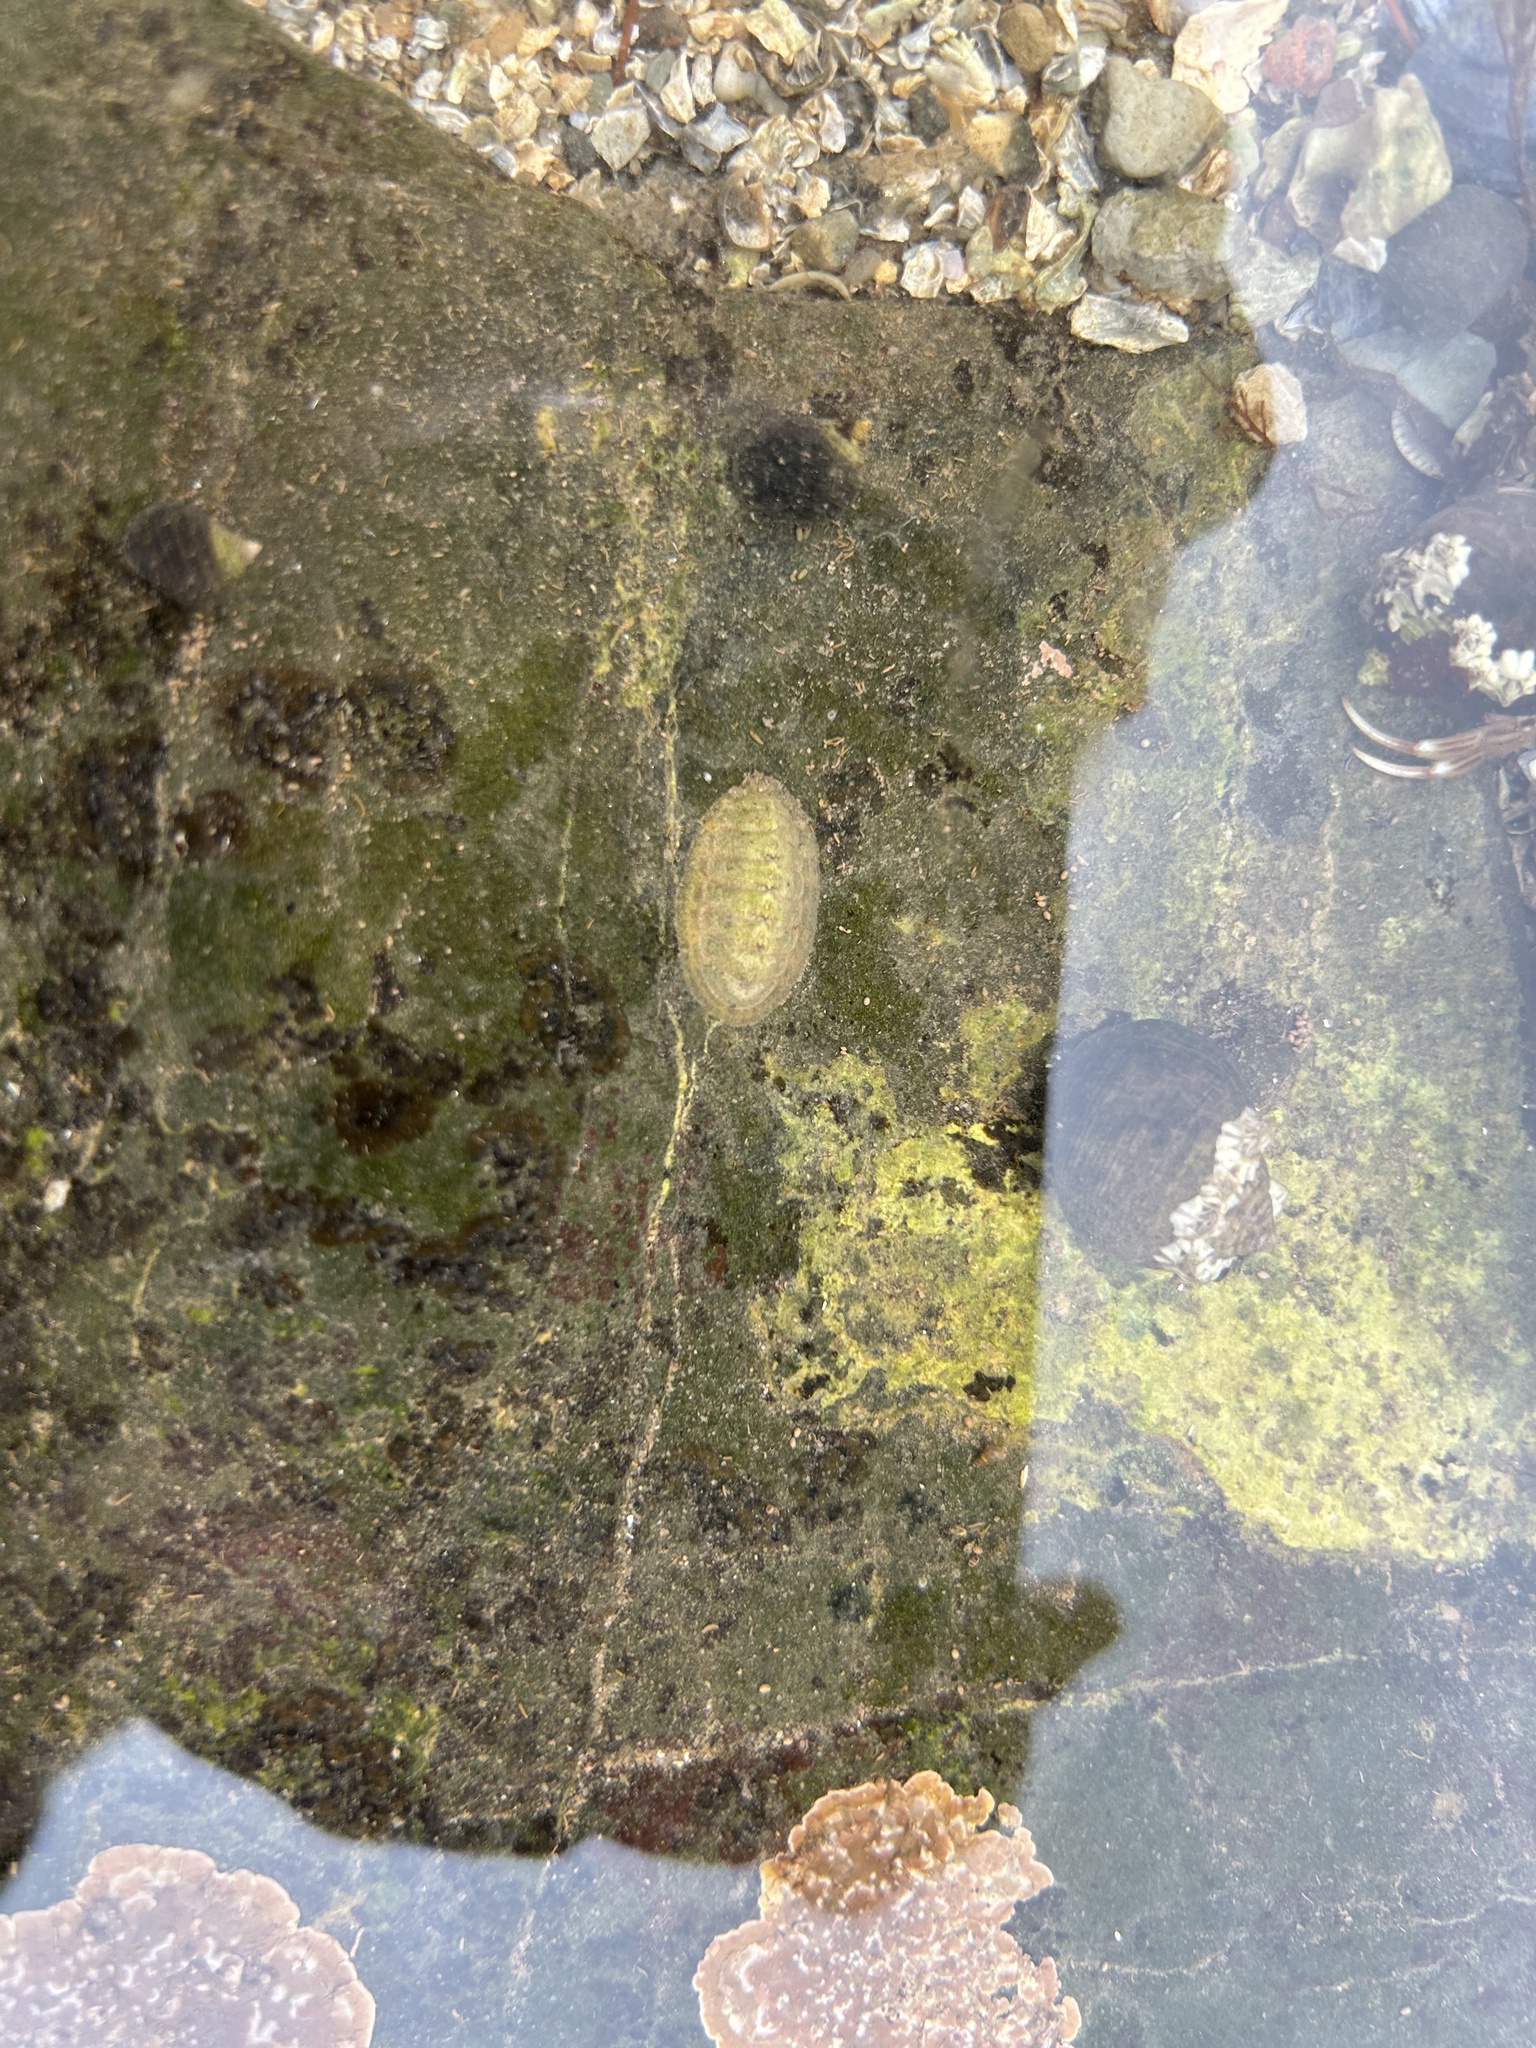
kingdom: Animalia
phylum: Mollusca
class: Polyplacophora
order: Chitonida
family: Tonicellidae
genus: Lepidochitona
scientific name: Lepidochitona cinerea
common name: Cinereous chiton
